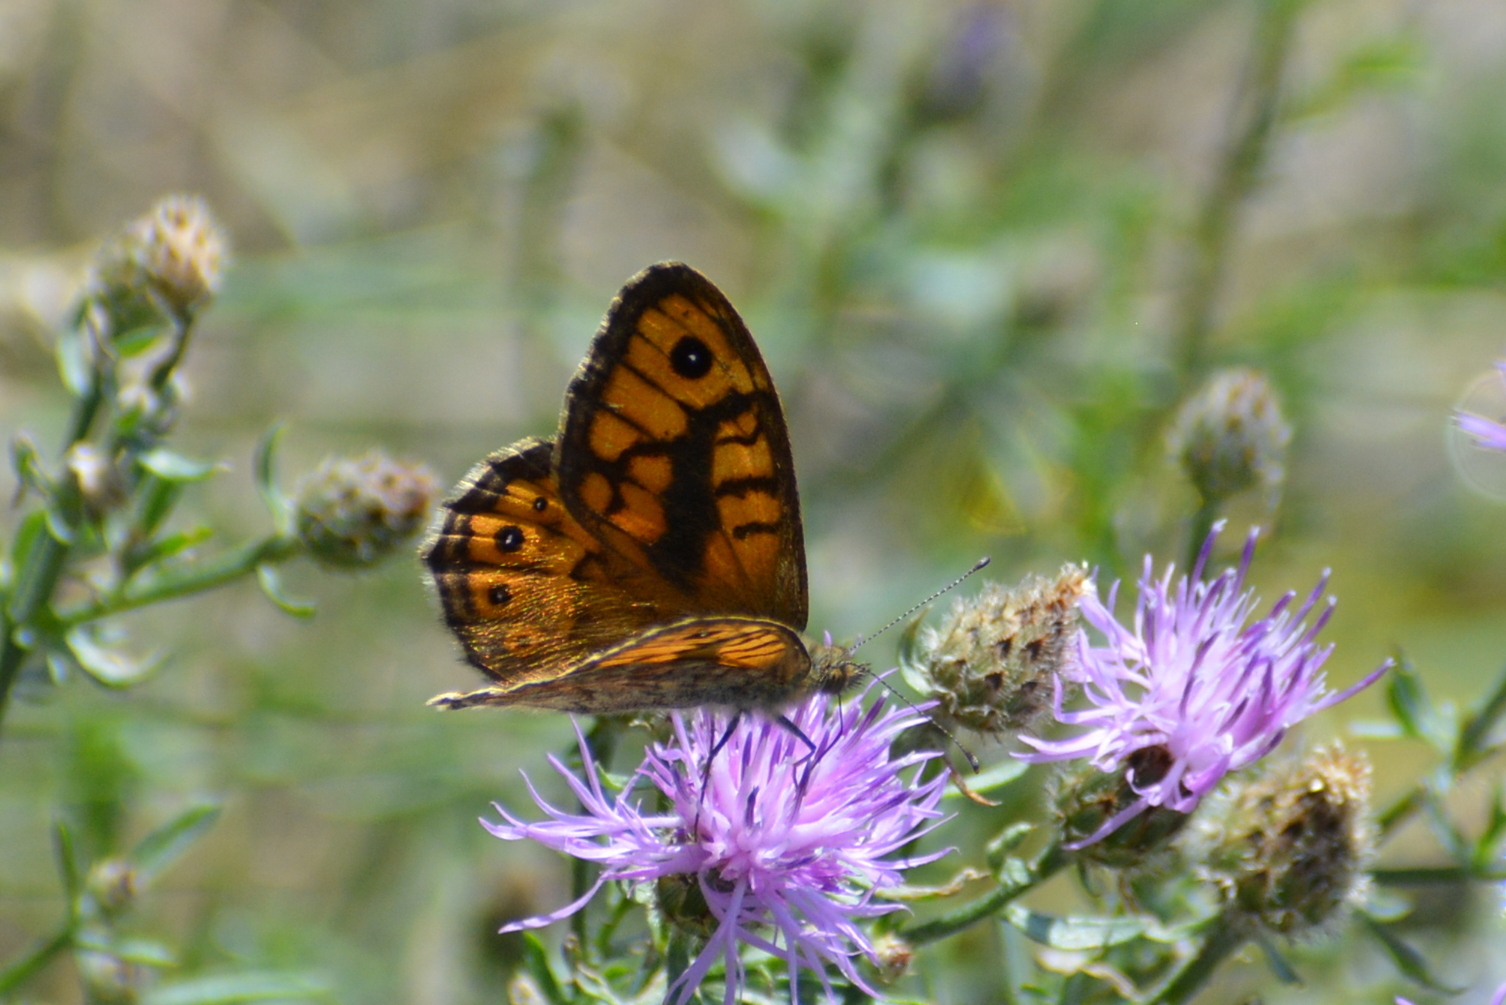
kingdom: Animalia
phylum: Arthropoda
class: Insecta
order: Lepidoptera
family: Nymphalidae
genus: Pararge
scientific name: Pararge Lasiommata megera
